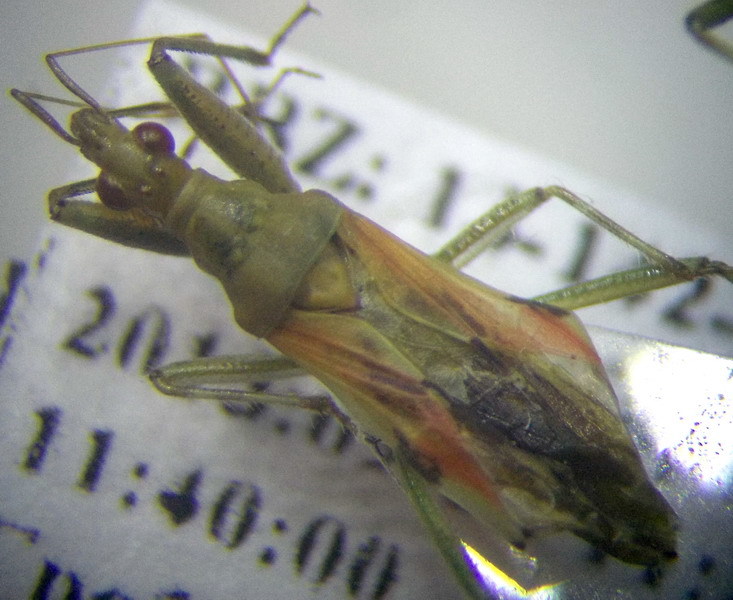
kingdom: Animalia
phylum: Arthropoda
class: Insecta
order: Hemiptera
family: Nabidae
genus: Nabis
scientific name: Nabis pallidus
